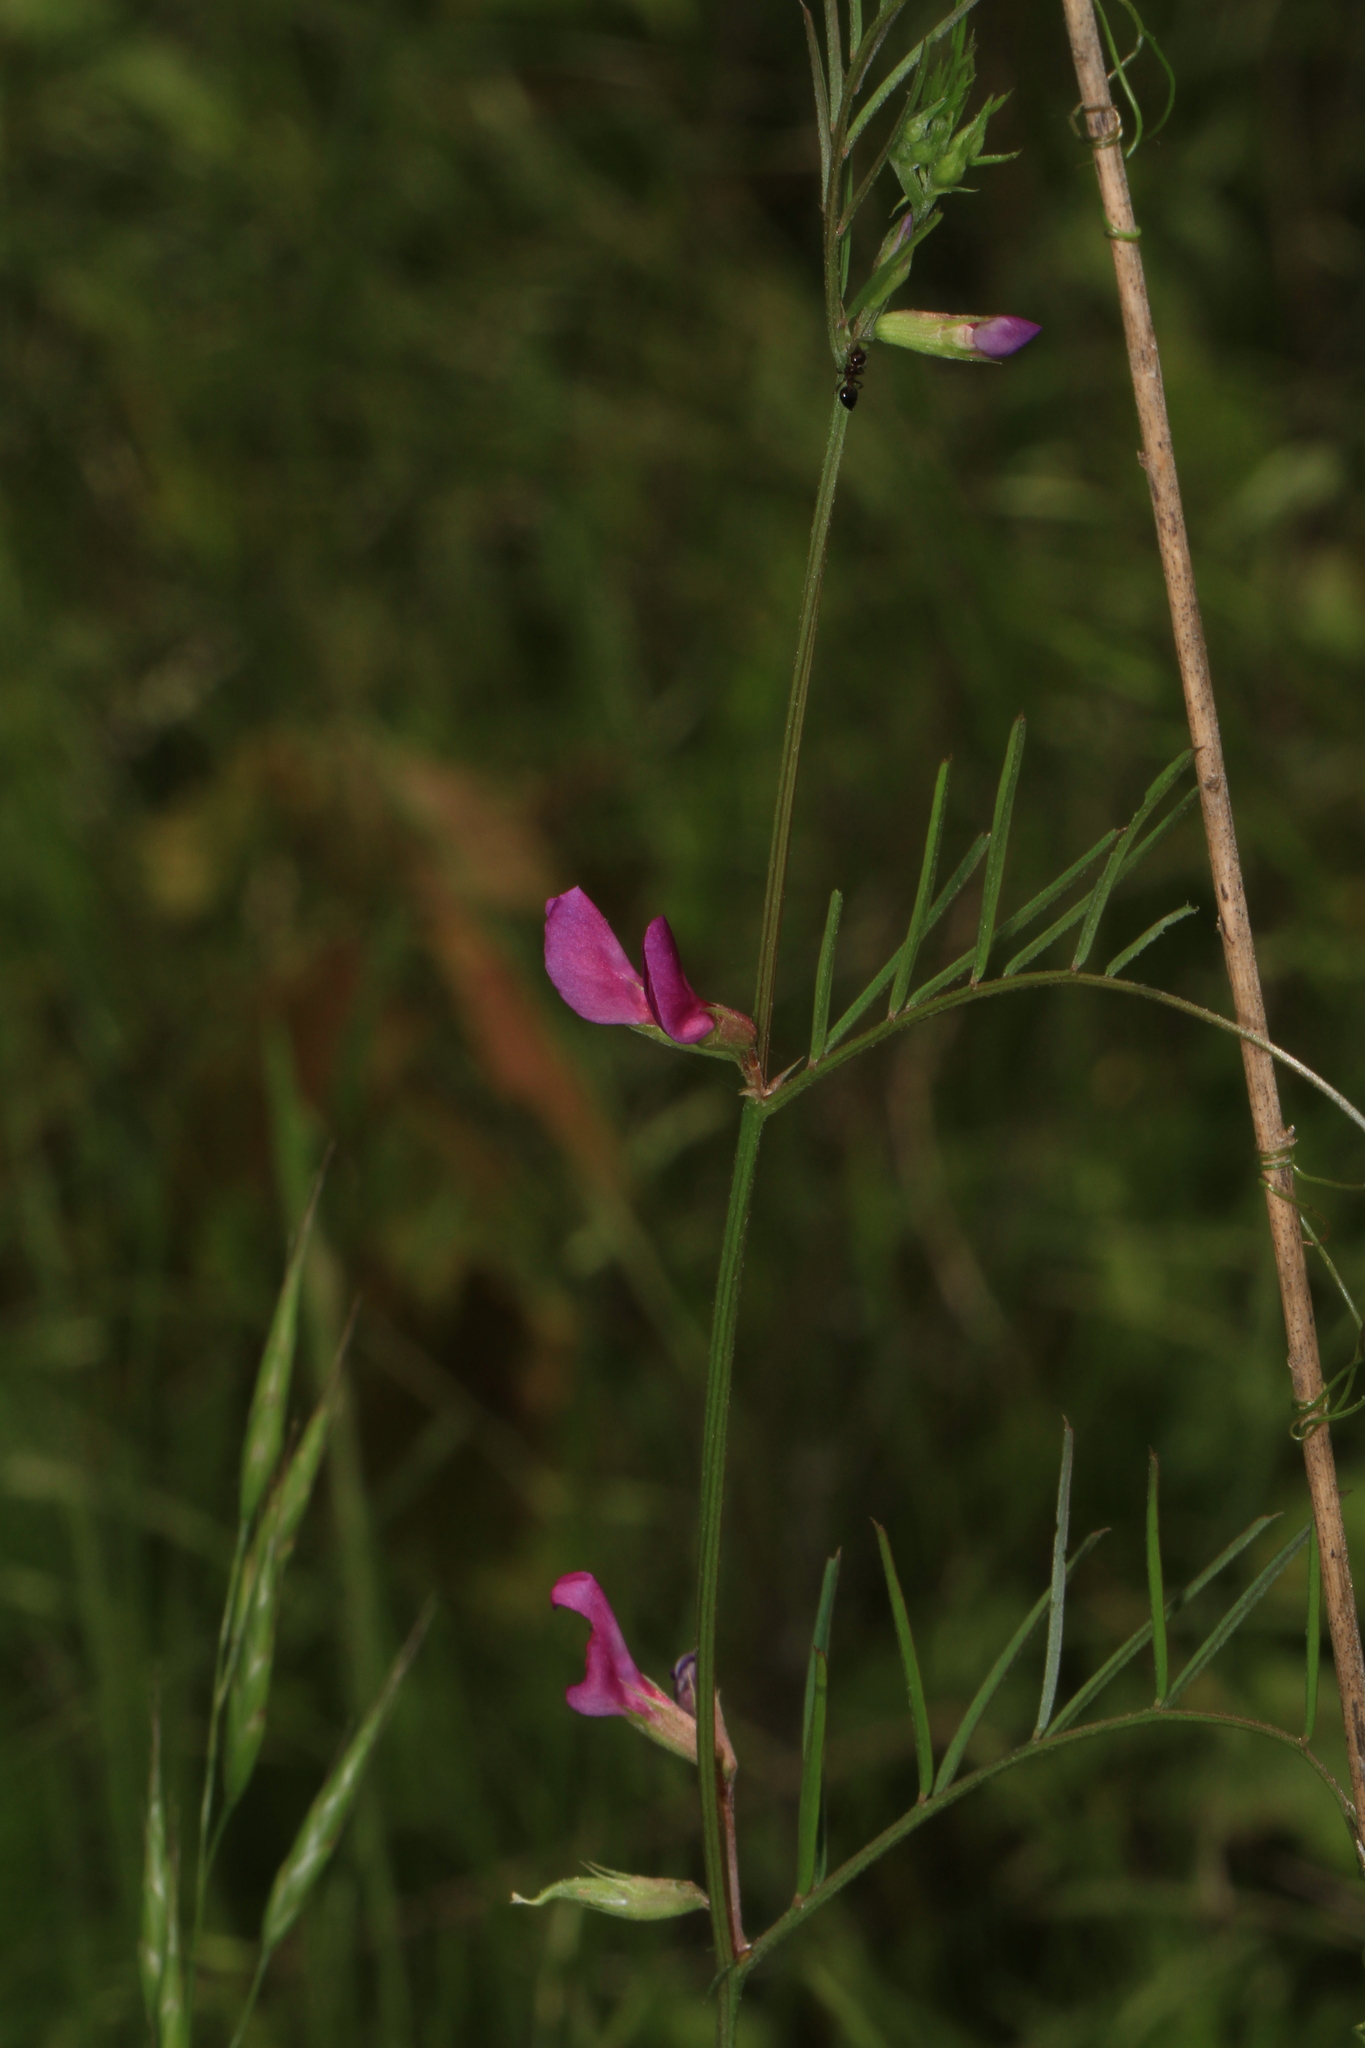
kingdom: Plantae
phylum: Tracheophyta
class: Magnoliopsida
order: Fabales
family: Fabaceae
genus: Vicia
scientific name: Vicia sativa
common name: Garden vetch
